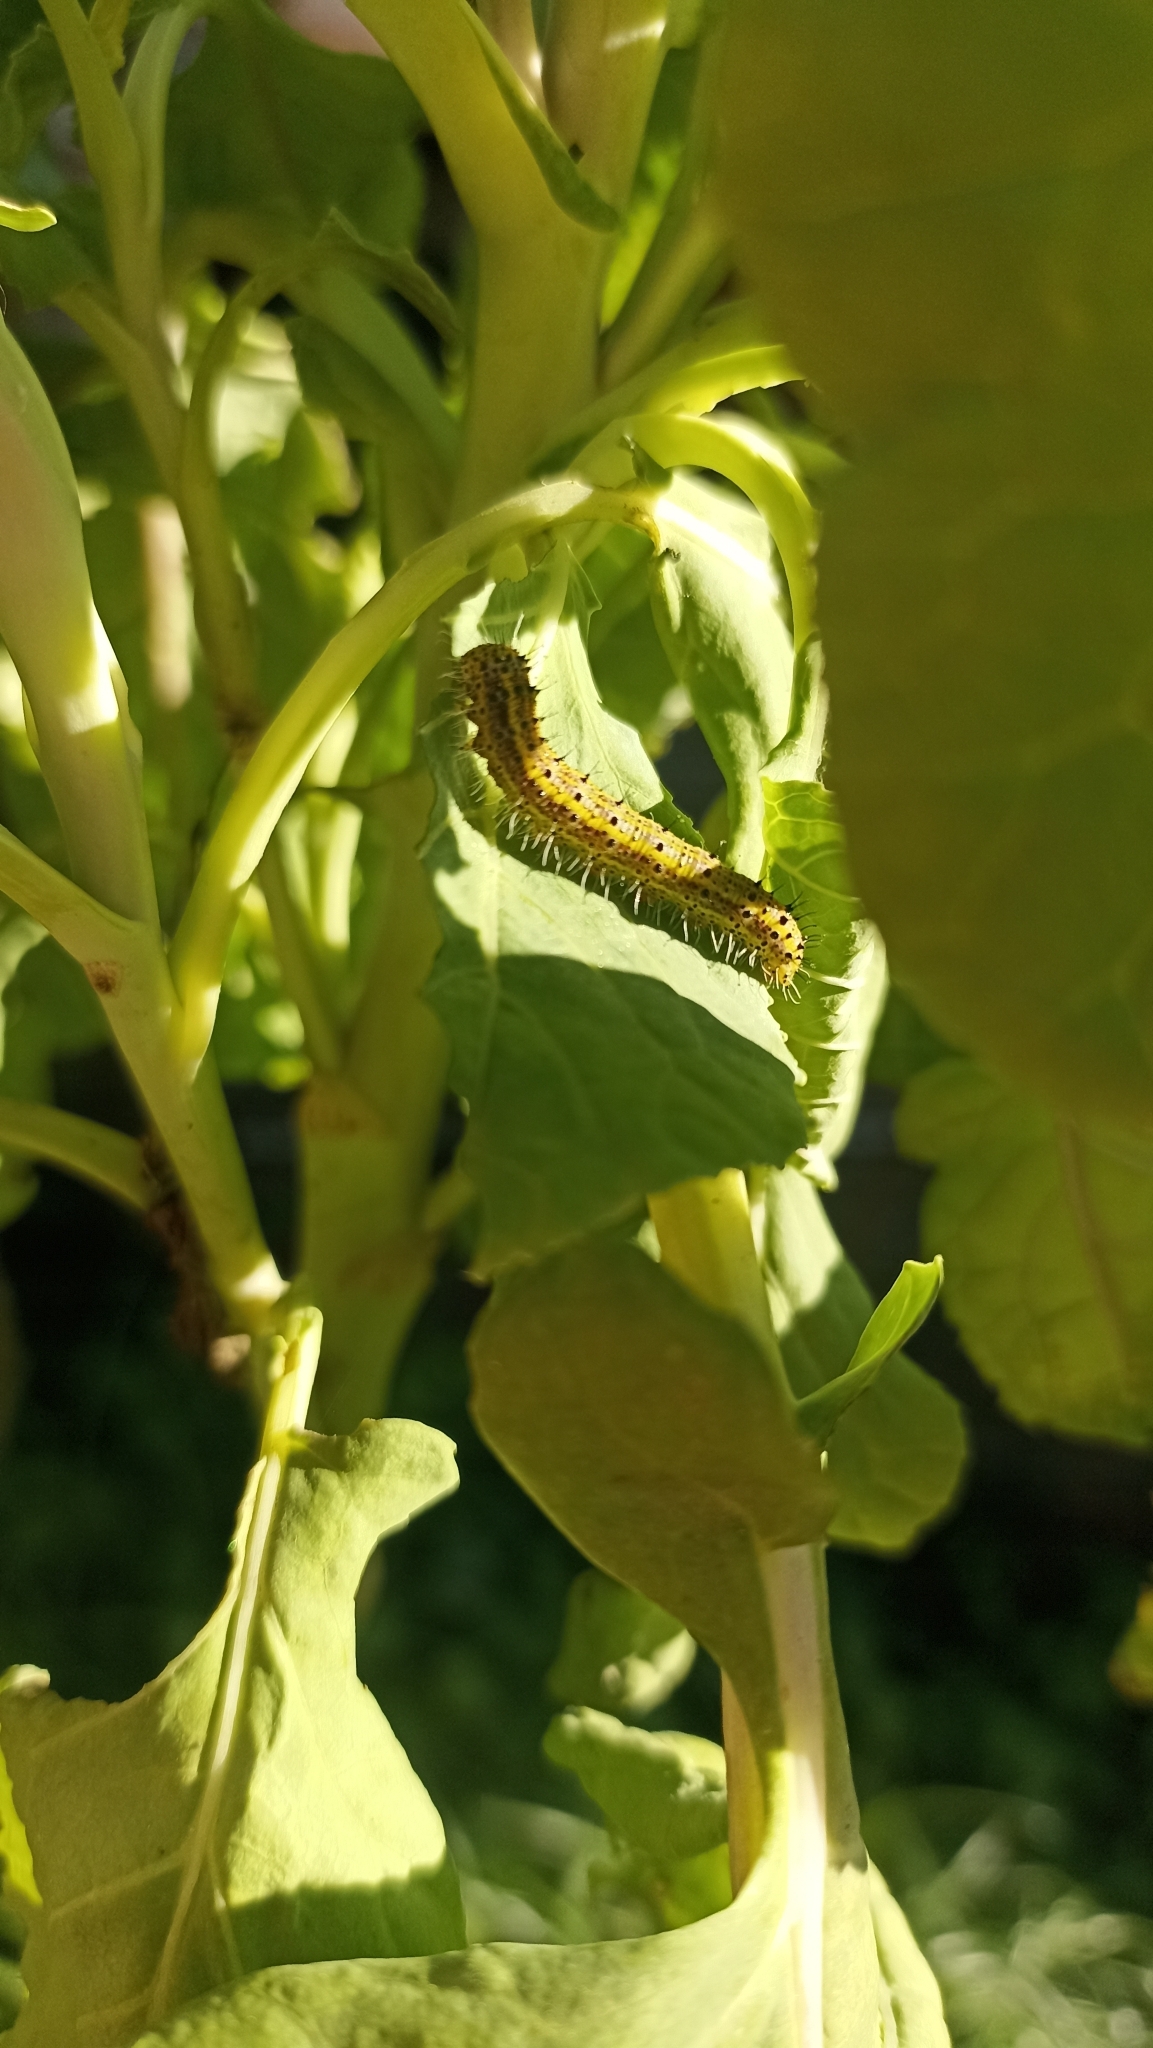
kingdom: Animalia
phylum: Arthropoda
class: Insecta
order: Lepidoptera
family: Pieridae
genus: Ascia
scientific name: Ascia monuste
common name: Great southern white
